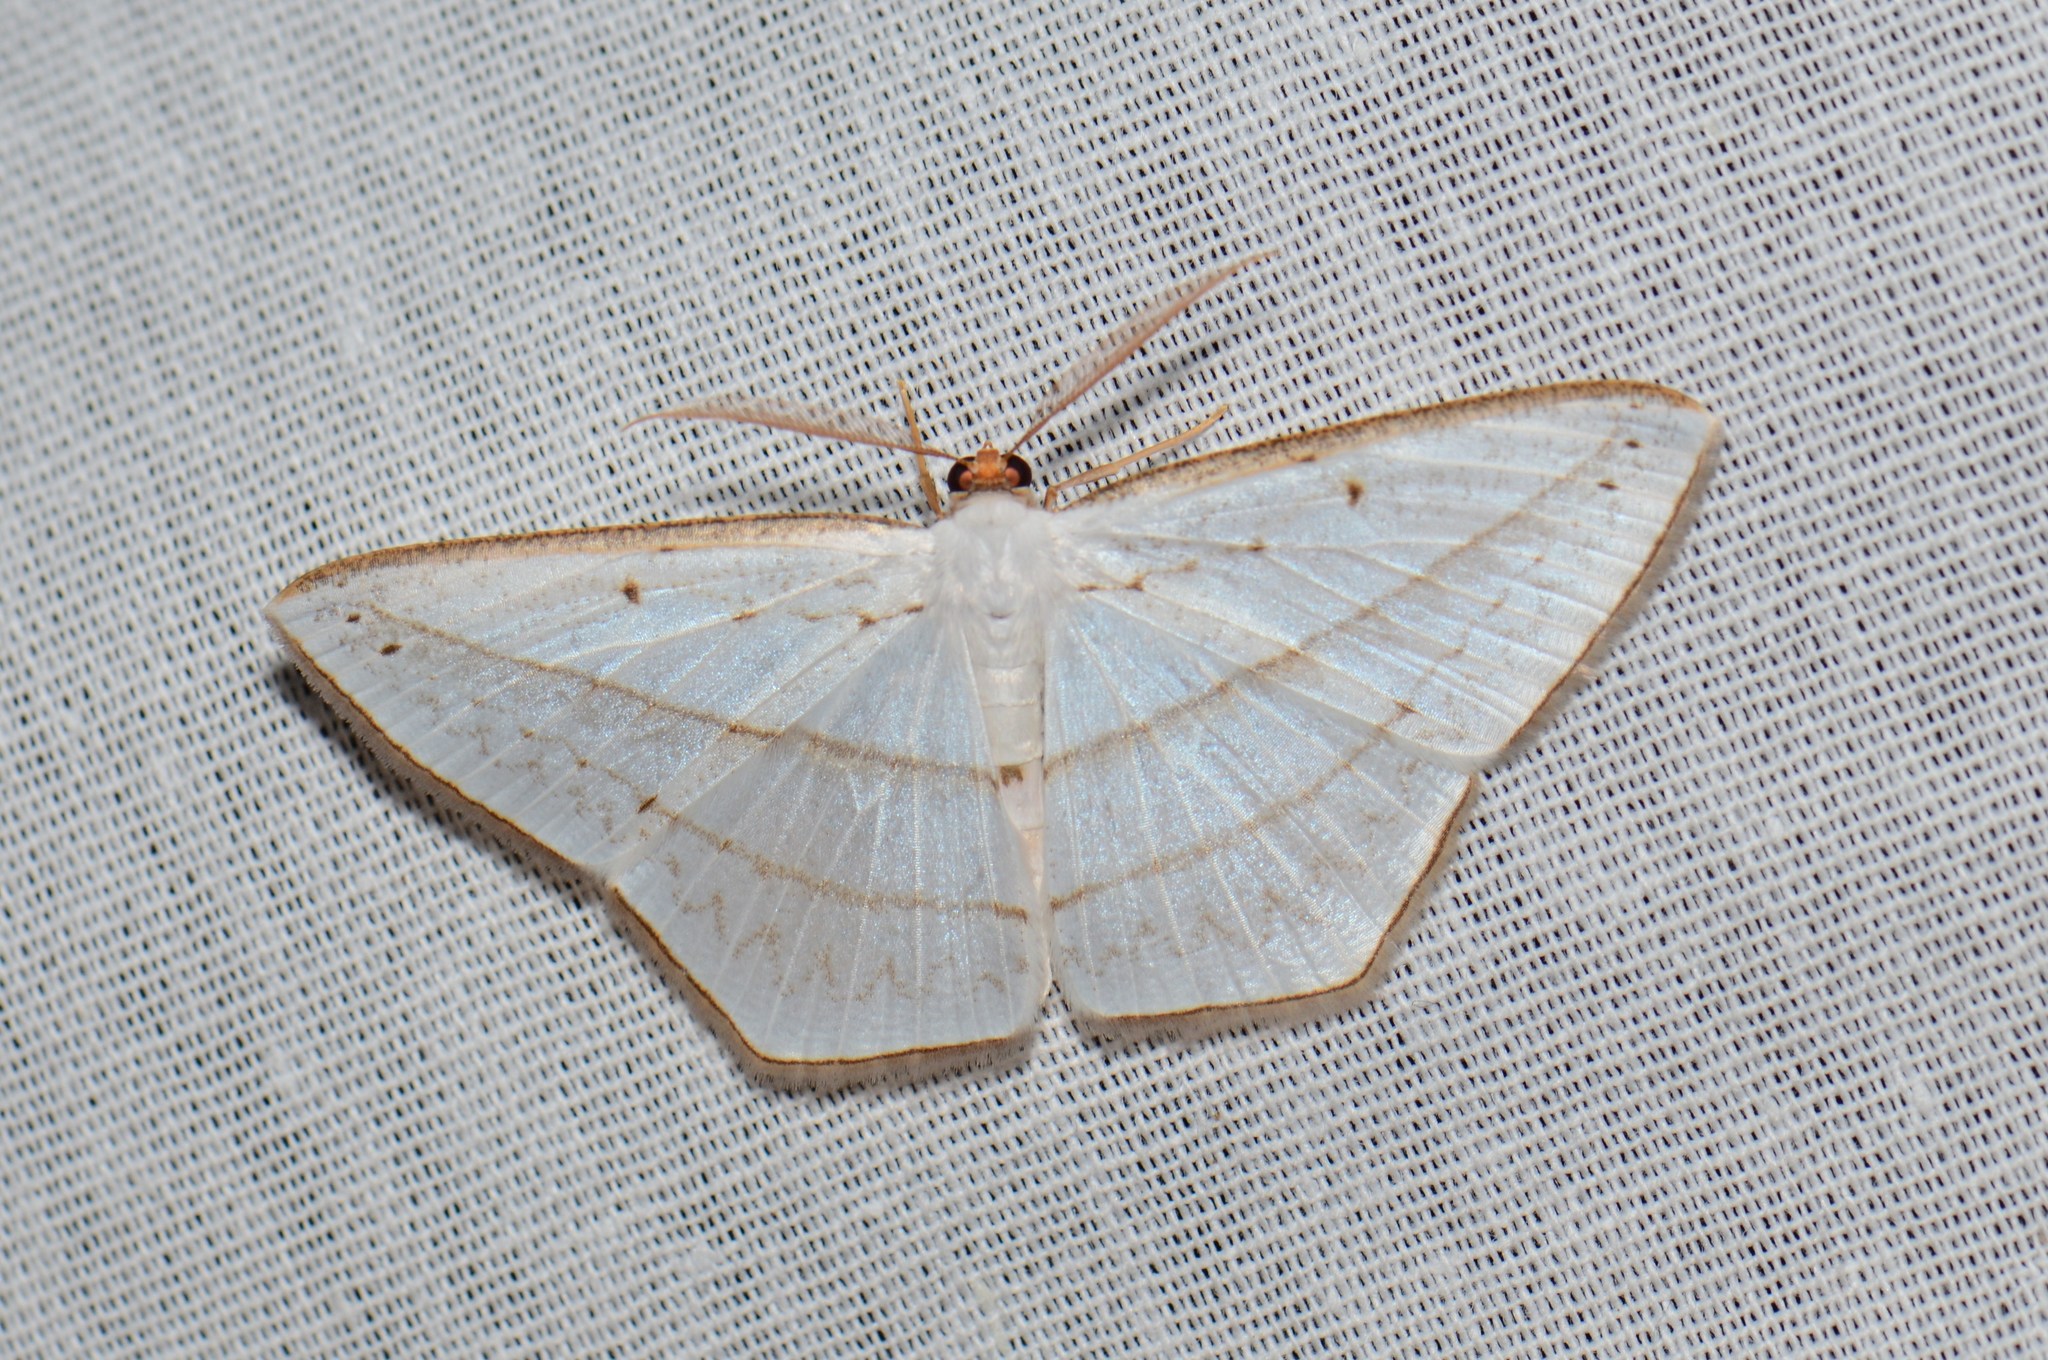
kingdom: Animalia
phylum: Arthropoda
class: Insecta
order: Lepidoptera
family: Geometridae
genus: Orthocabera
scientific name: Orthocabera similaria
